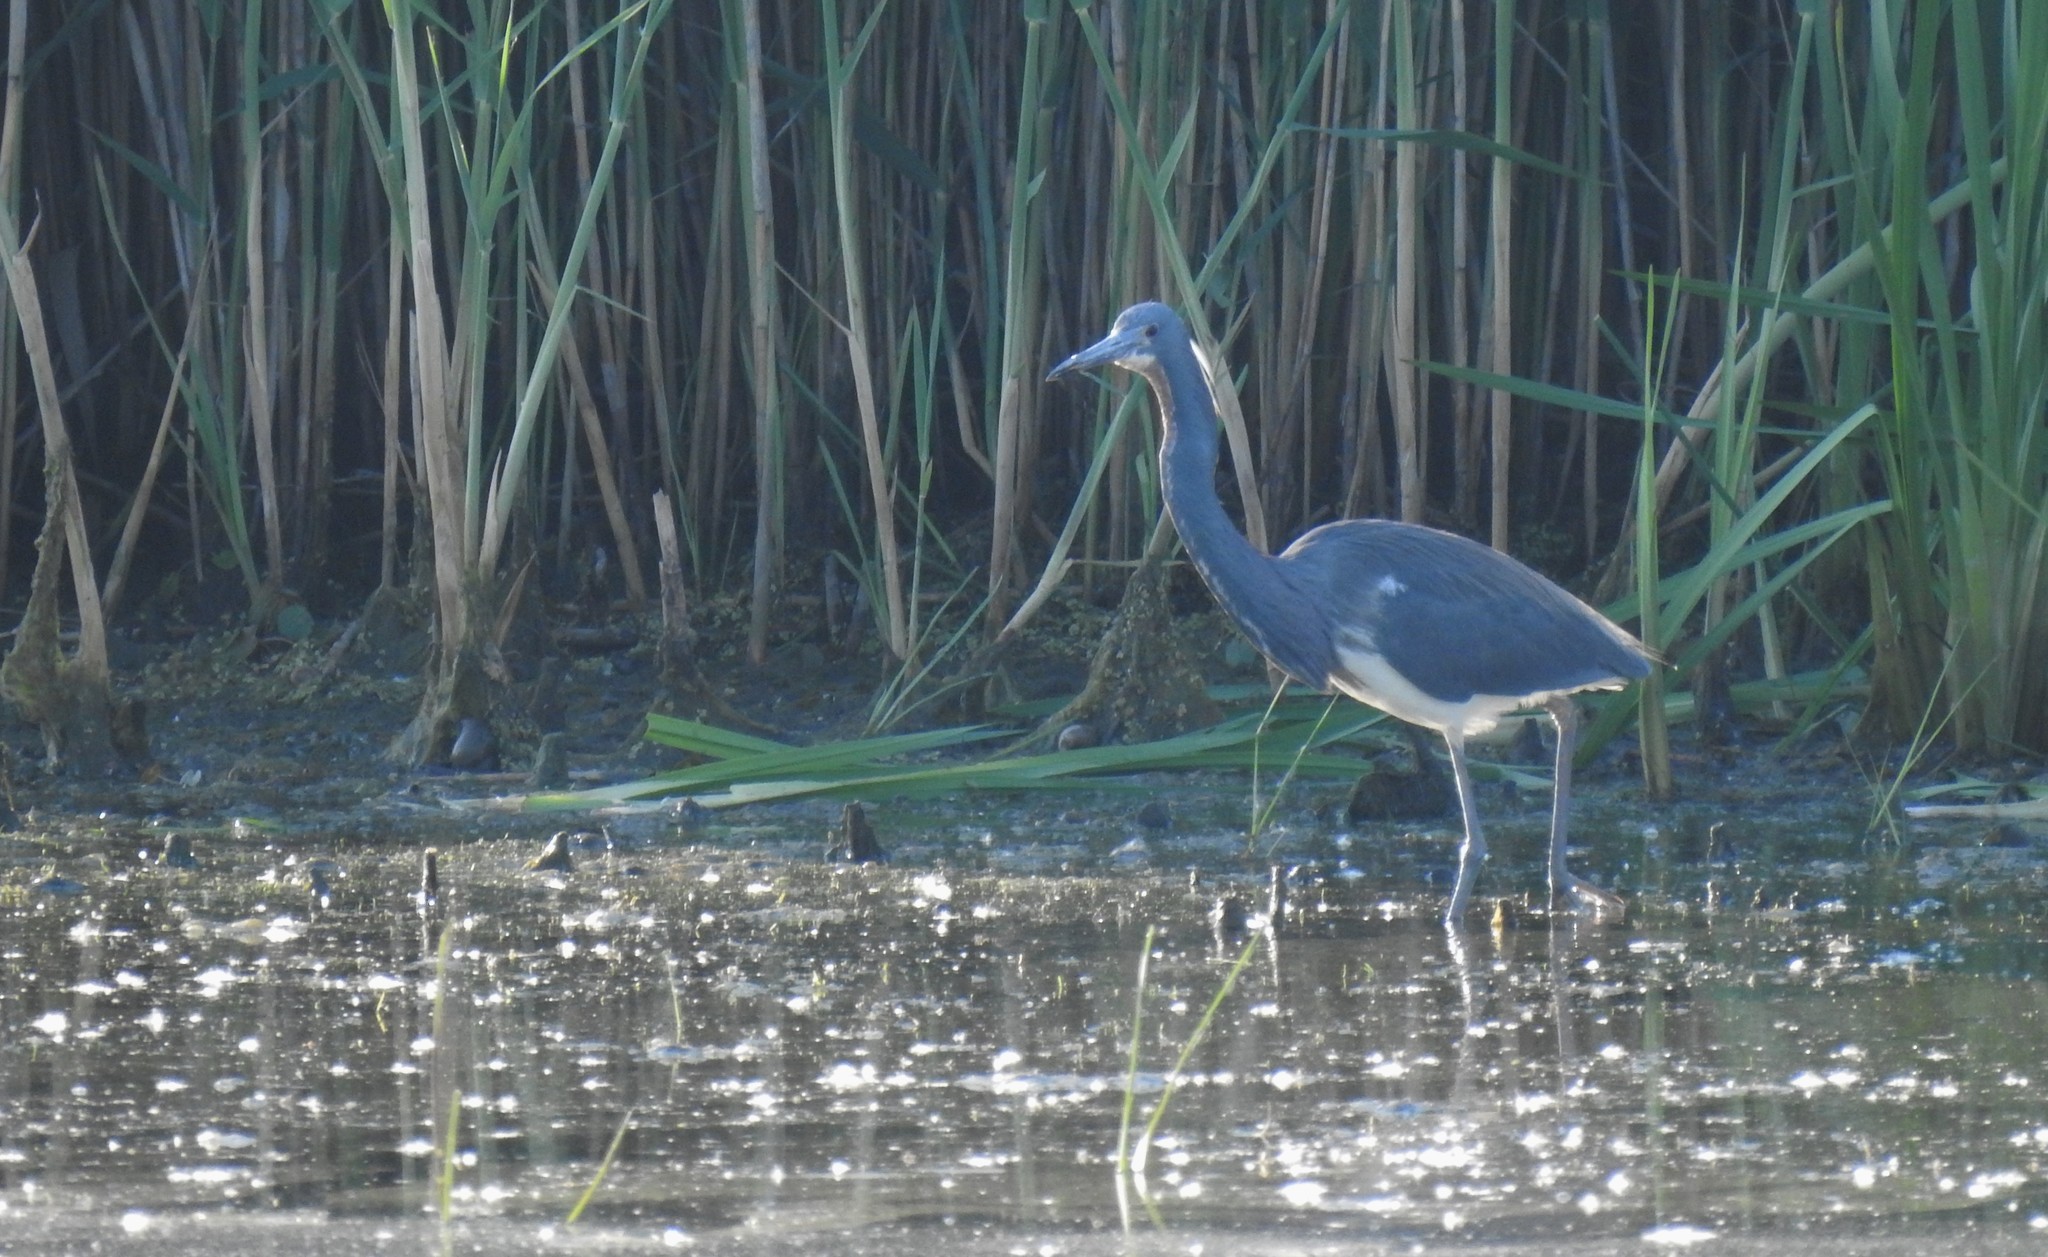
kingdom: Animalia
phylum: Chordata
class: Aves
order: Pelecaniformes
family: Ardeidae
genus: Egretta
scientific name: Egretta tricolor
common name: Tricolored heron
